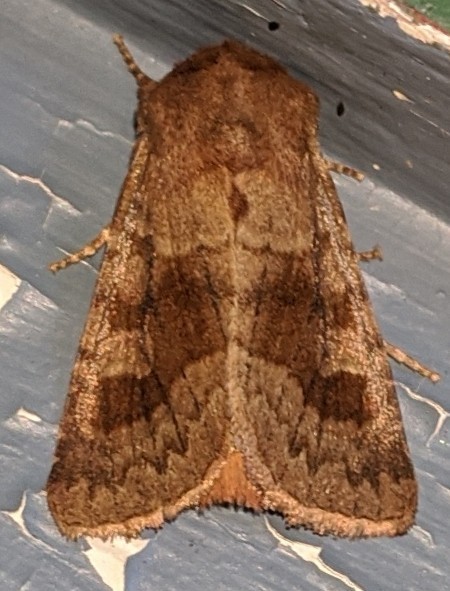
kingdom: Animalia
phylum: Arthropoda
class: Insecta
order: Lepidoptera
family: Noctuidae
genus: Nephelodes
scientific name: Nephelodes minians
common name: Bronzed cutworm
